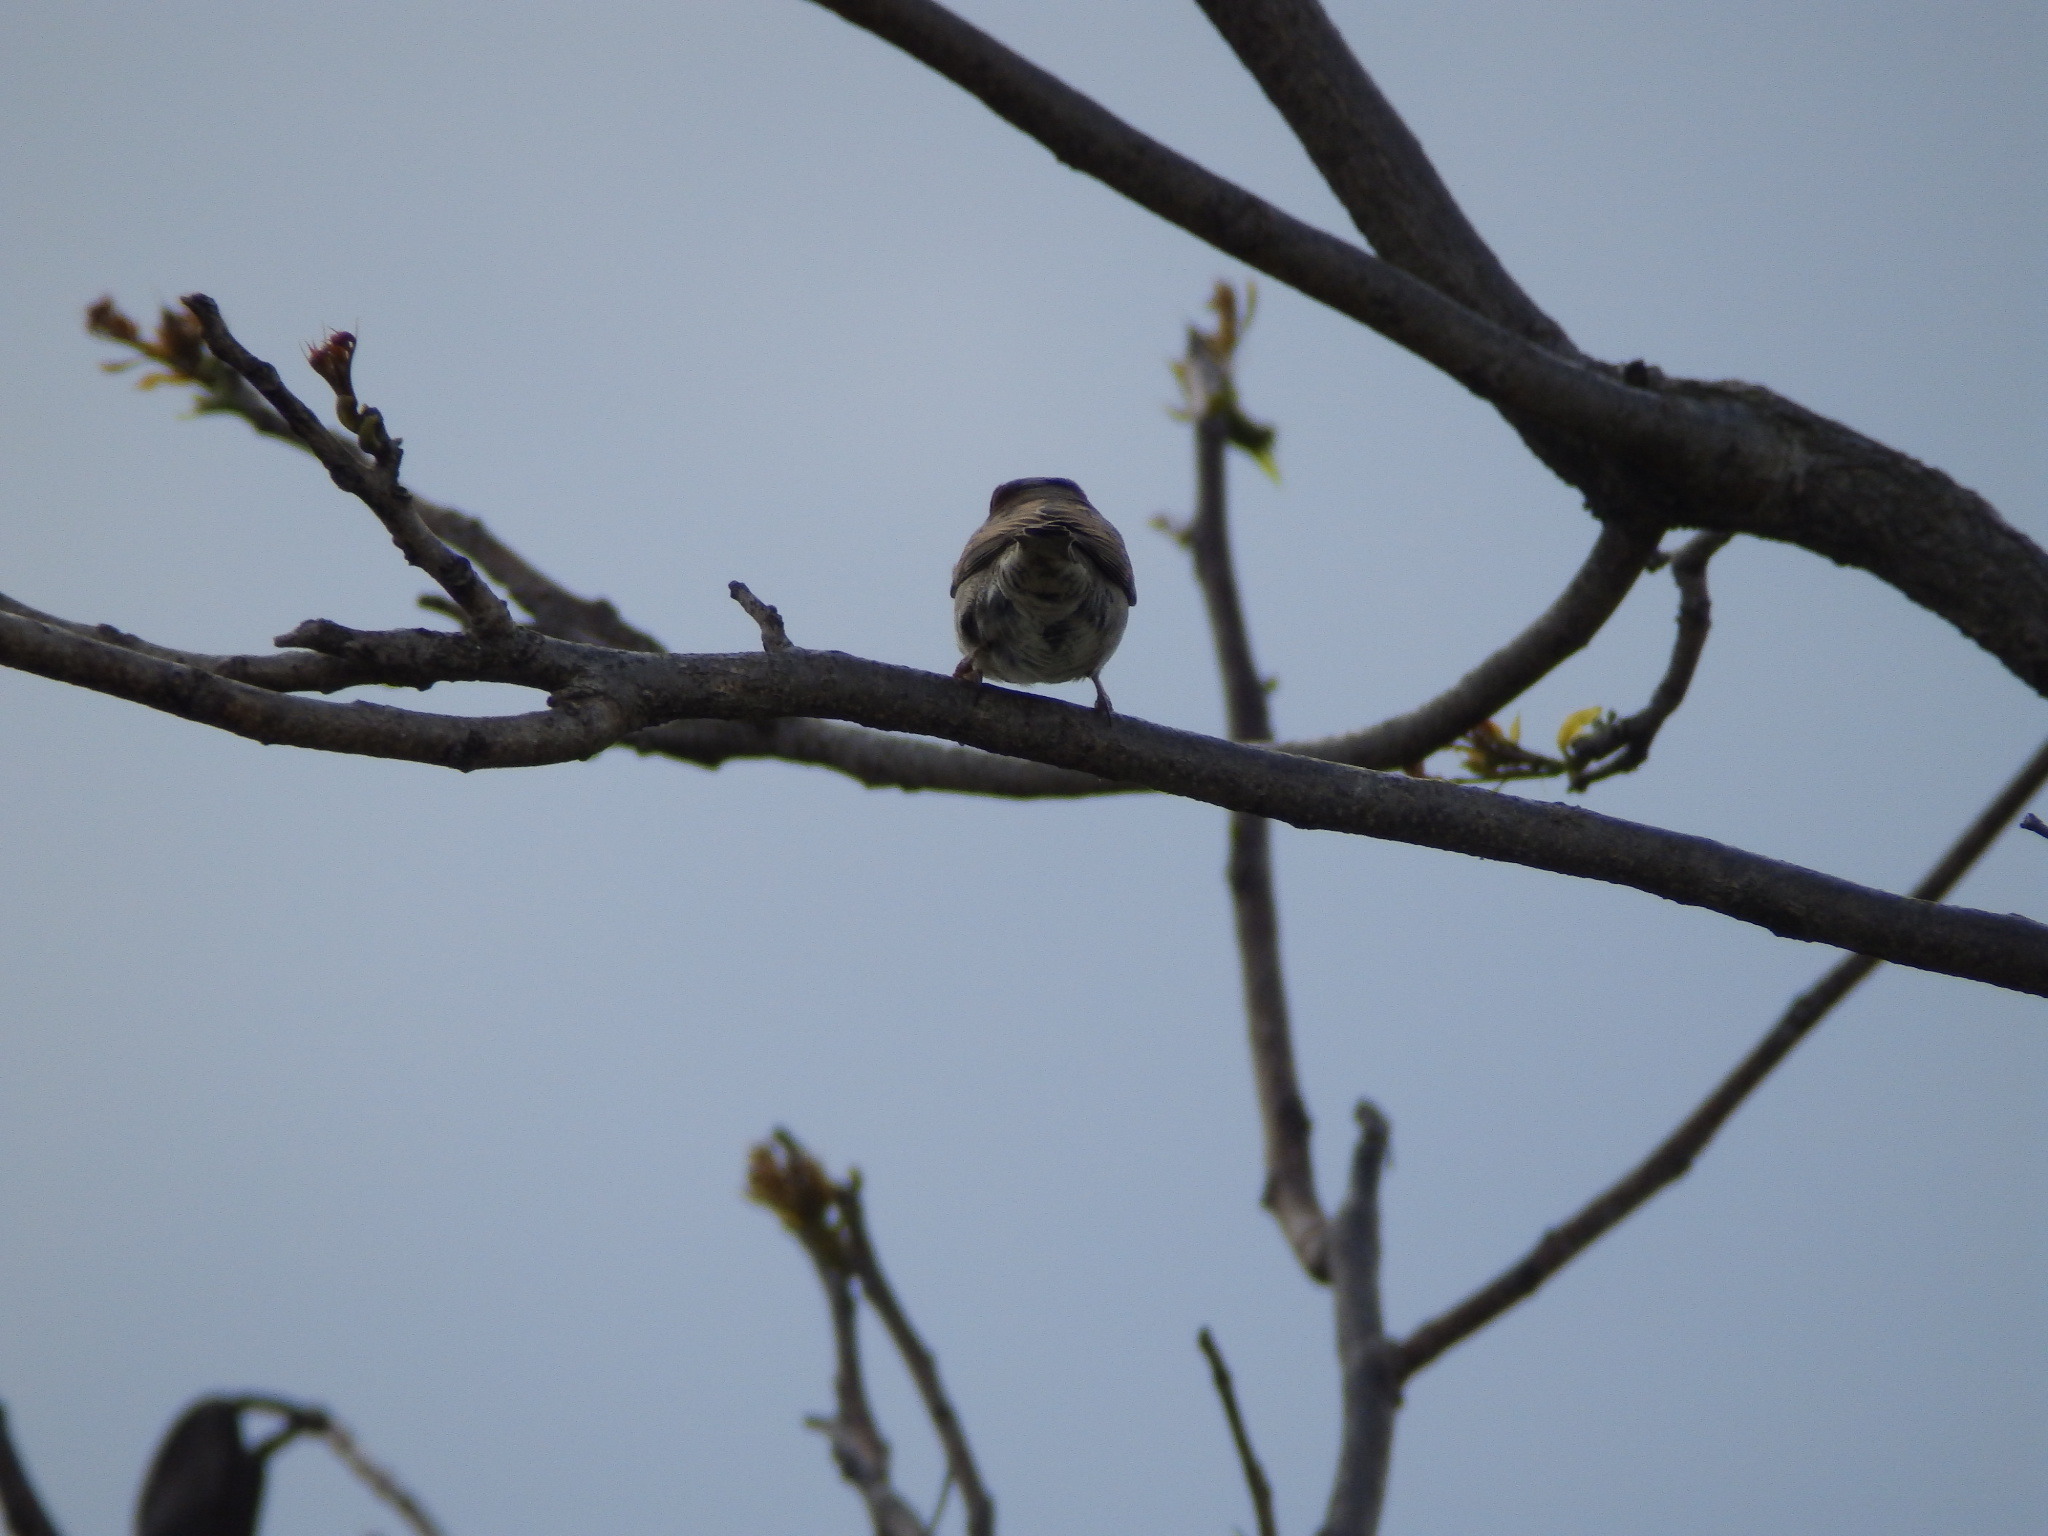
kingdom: Animalia
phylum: Chordata
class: Aves
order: Passeriformes
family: Passeridae
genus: Passer
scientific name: Passer domesticus
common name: House sparrow
